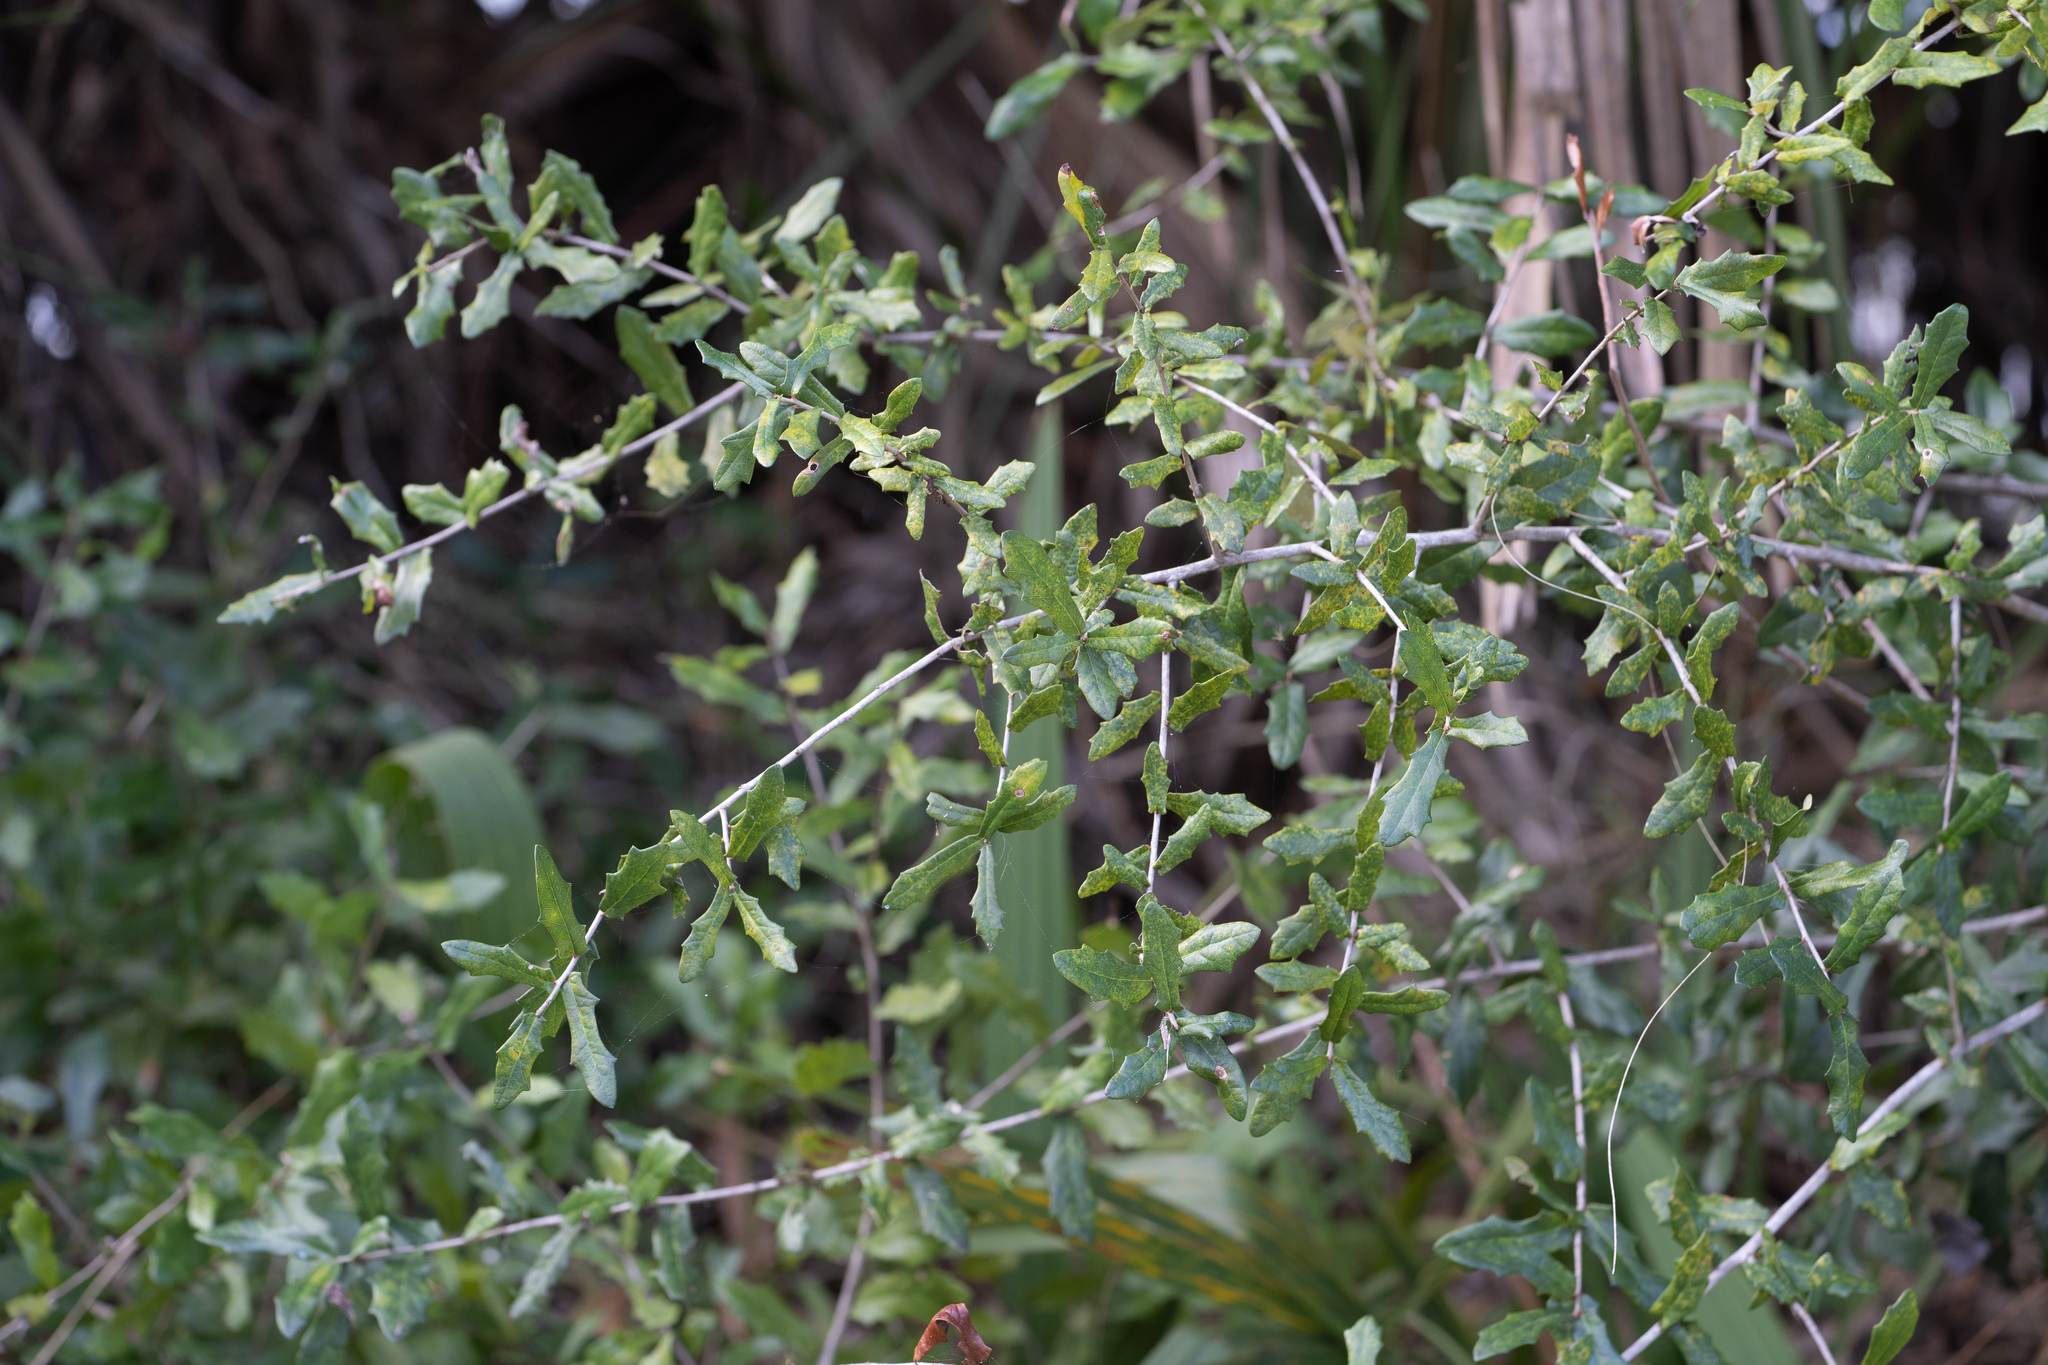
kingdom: Plantae
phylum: Tracheophyta
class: Magnoliopsida
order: Fagales
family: Fagaceae
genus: Quercus
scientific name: Quercus virginiana
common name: Southern live oak
